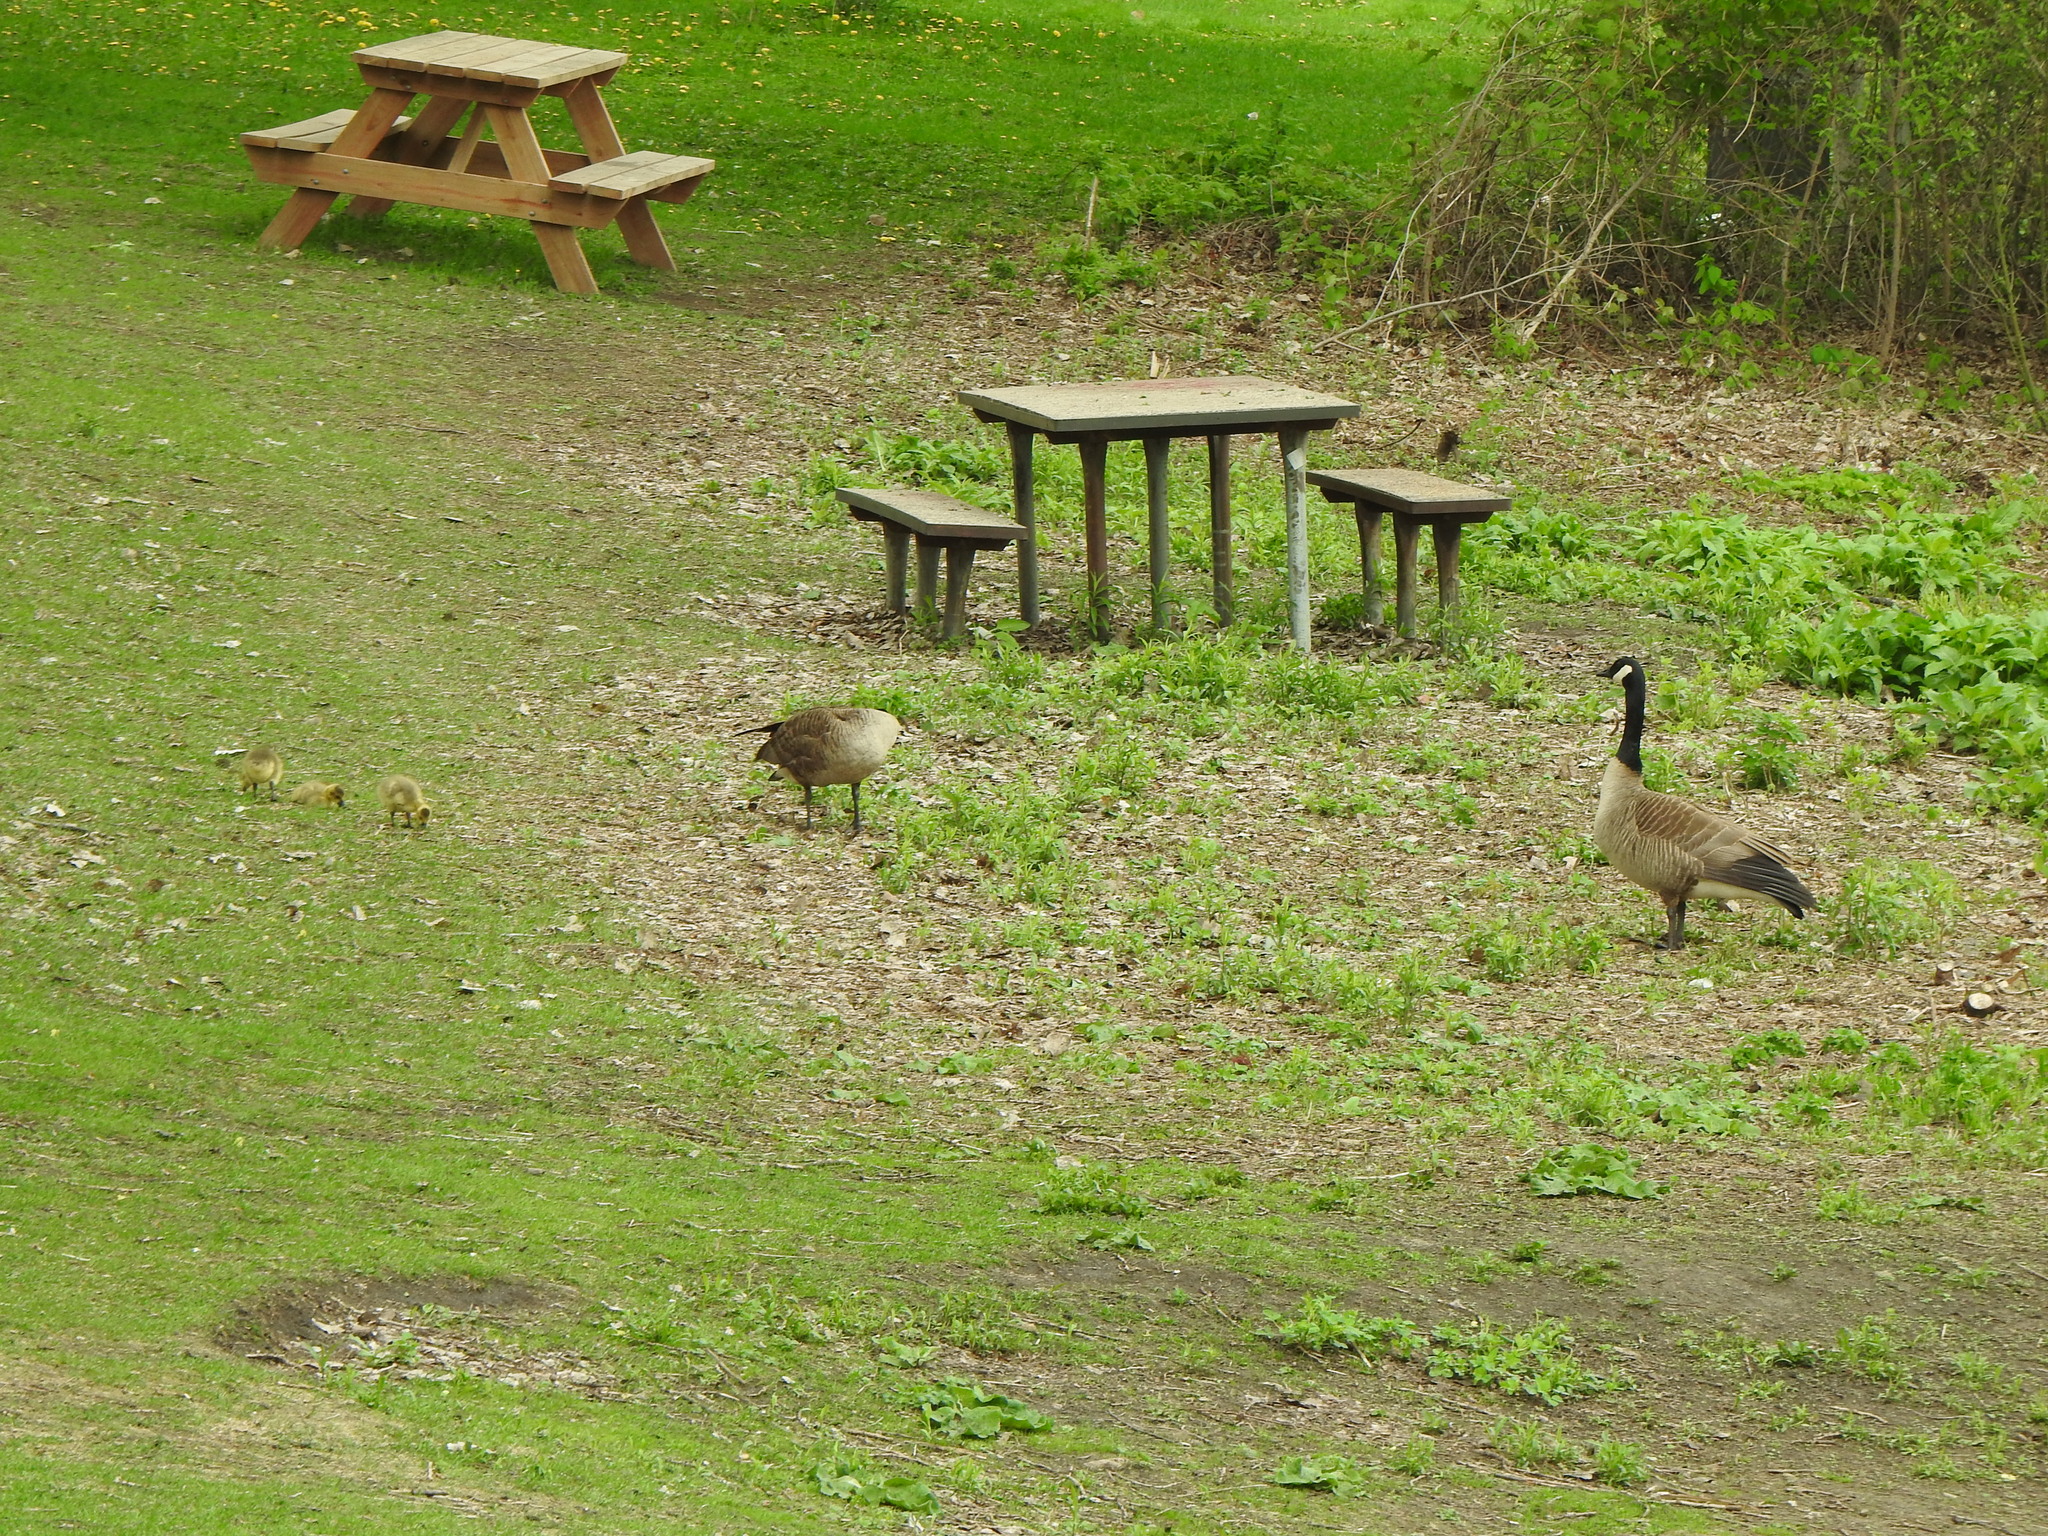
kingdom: Animalia
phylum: Chordata
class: Aves
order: Anseriformes
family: Anatidae
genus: Branta
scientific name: Branta canadensis
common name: Canada goose
